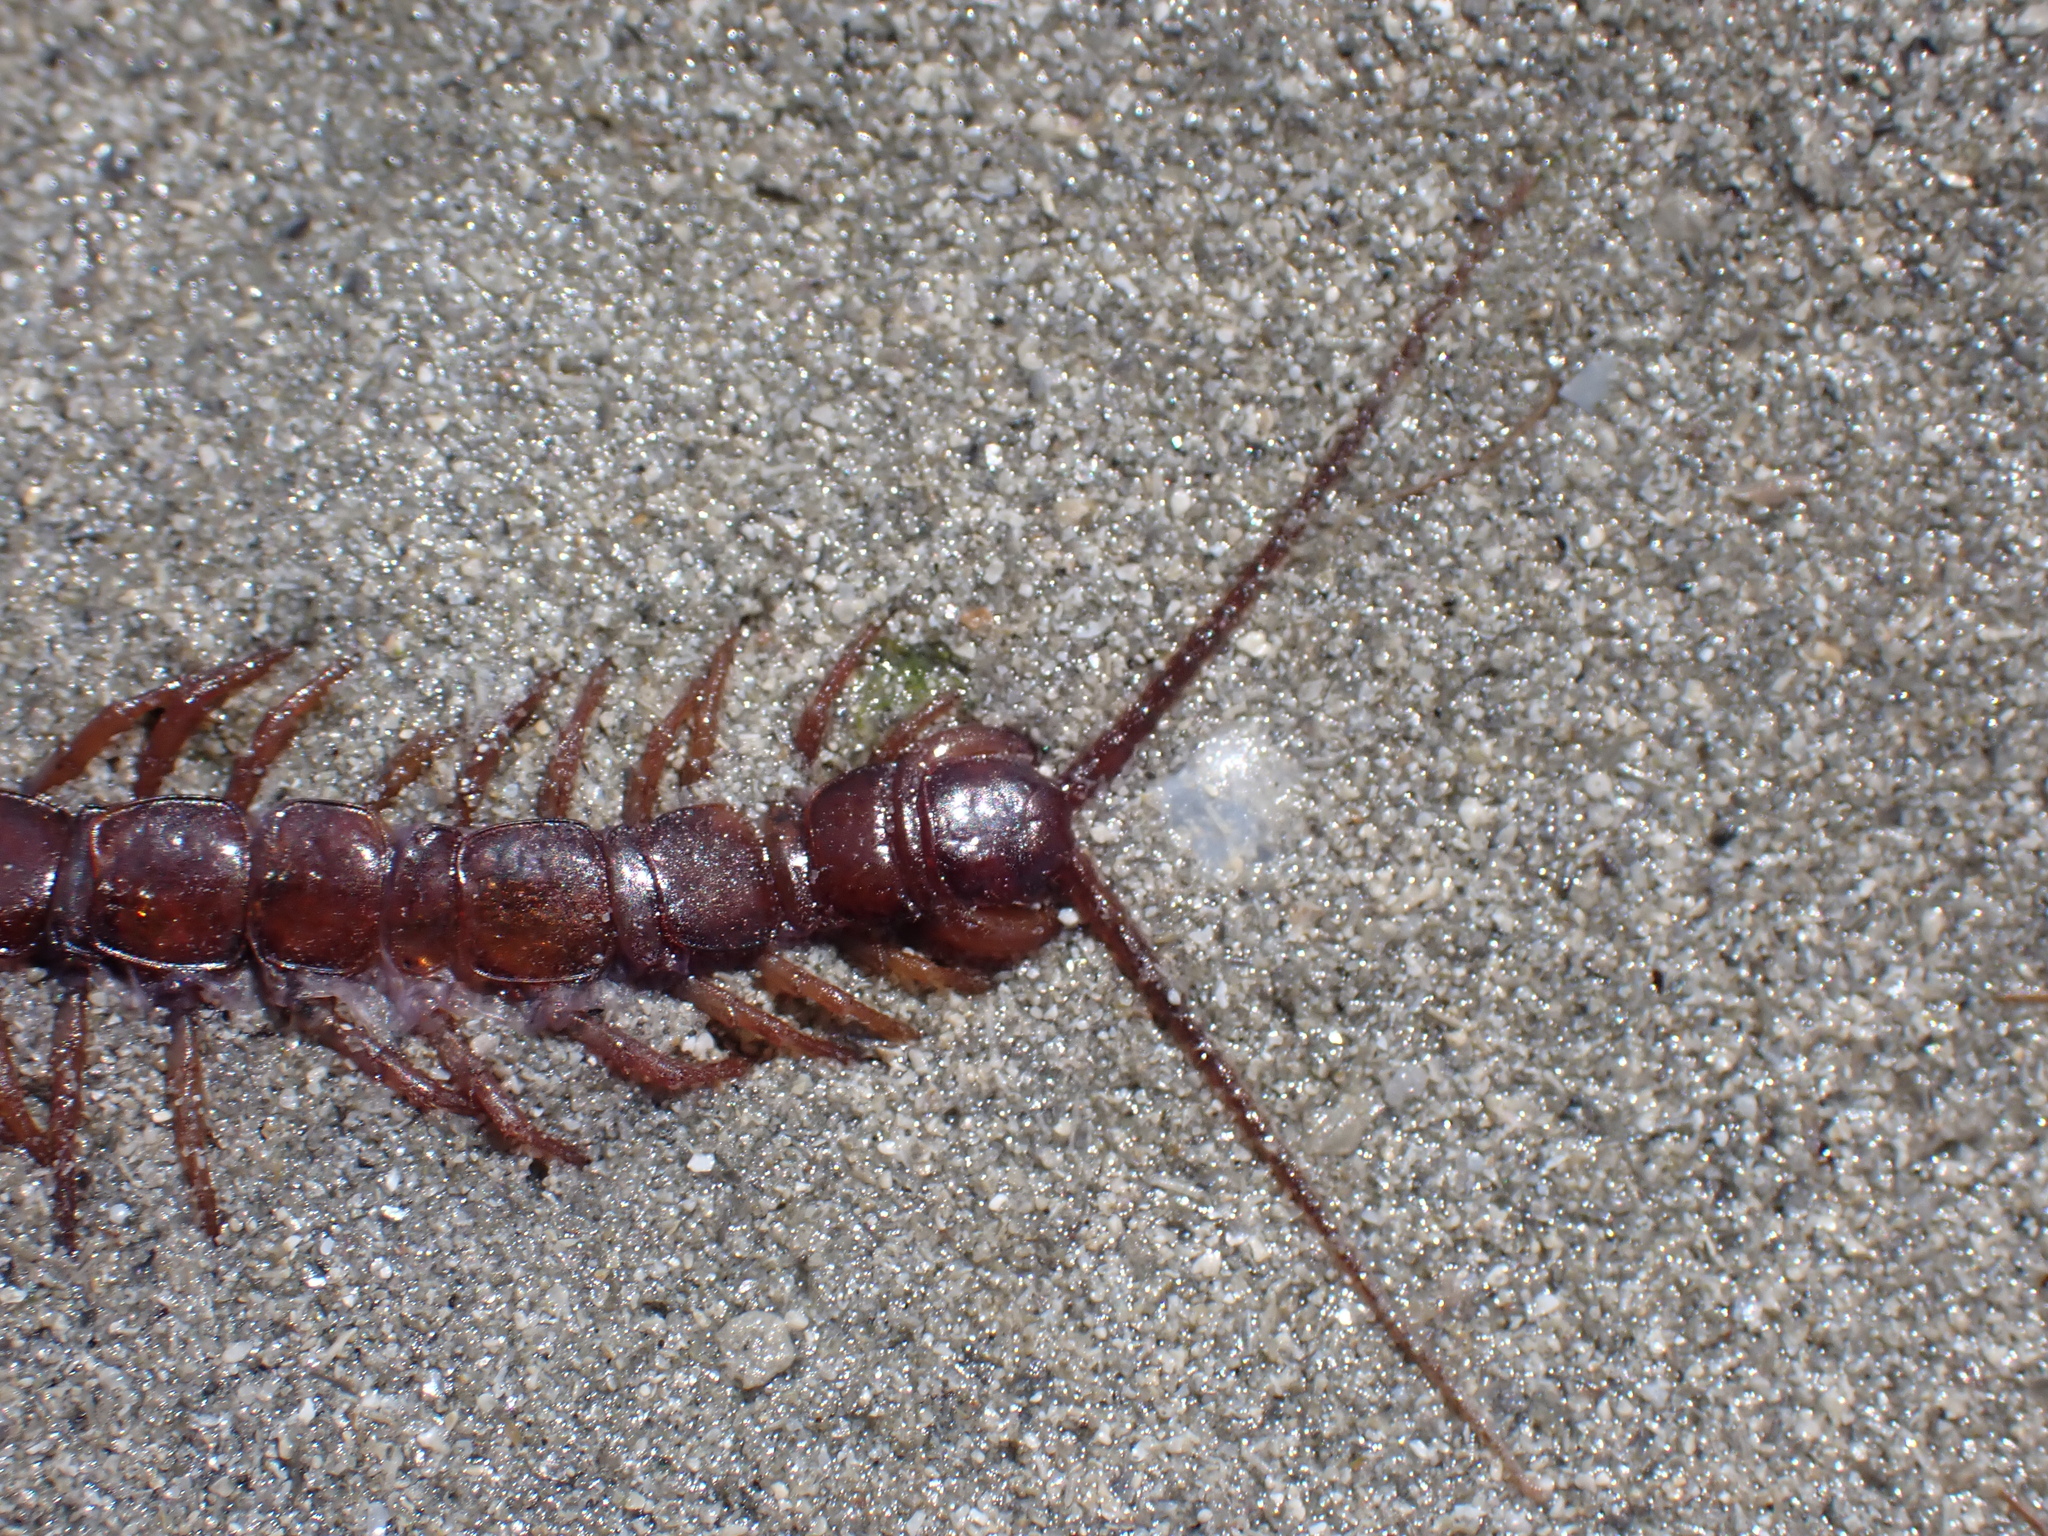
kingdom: Animalia
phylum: Arthropoda
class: Chilopoda
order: Lithobiomorpha
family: Lithobiidae
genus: Lithobius
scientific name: Lithobius pilicornis
